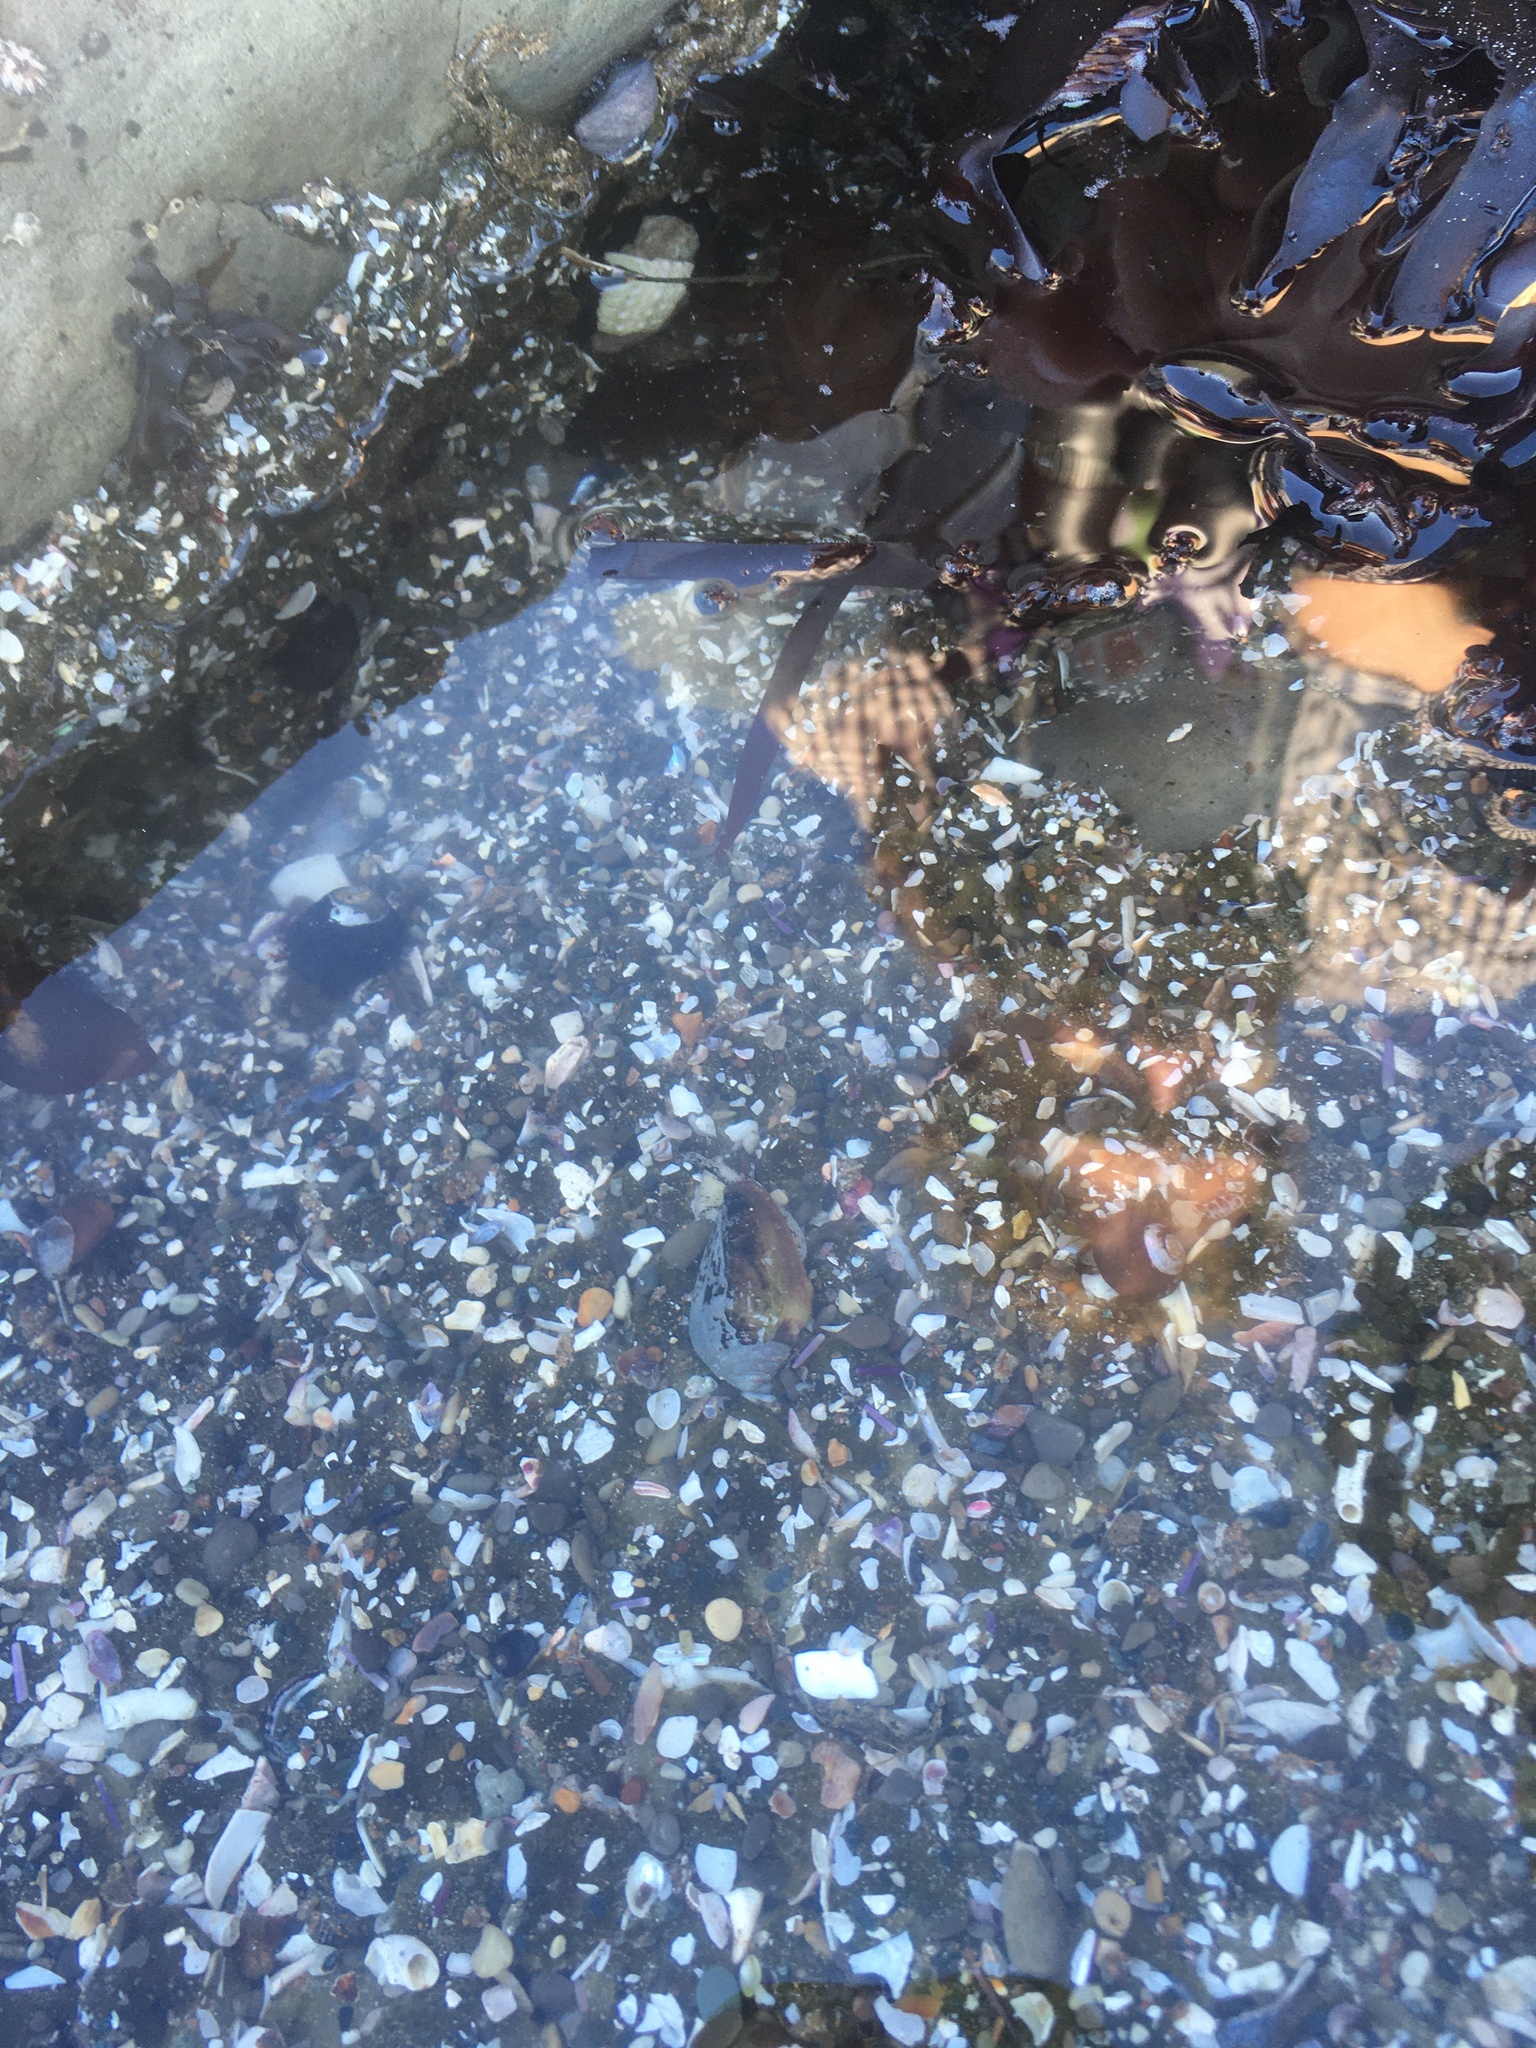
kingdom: Animalia
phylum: Mollusca
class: Gastropoda
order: Neogastropoda
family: Conidae
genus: Californiconus
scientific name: Californiconus californicus
